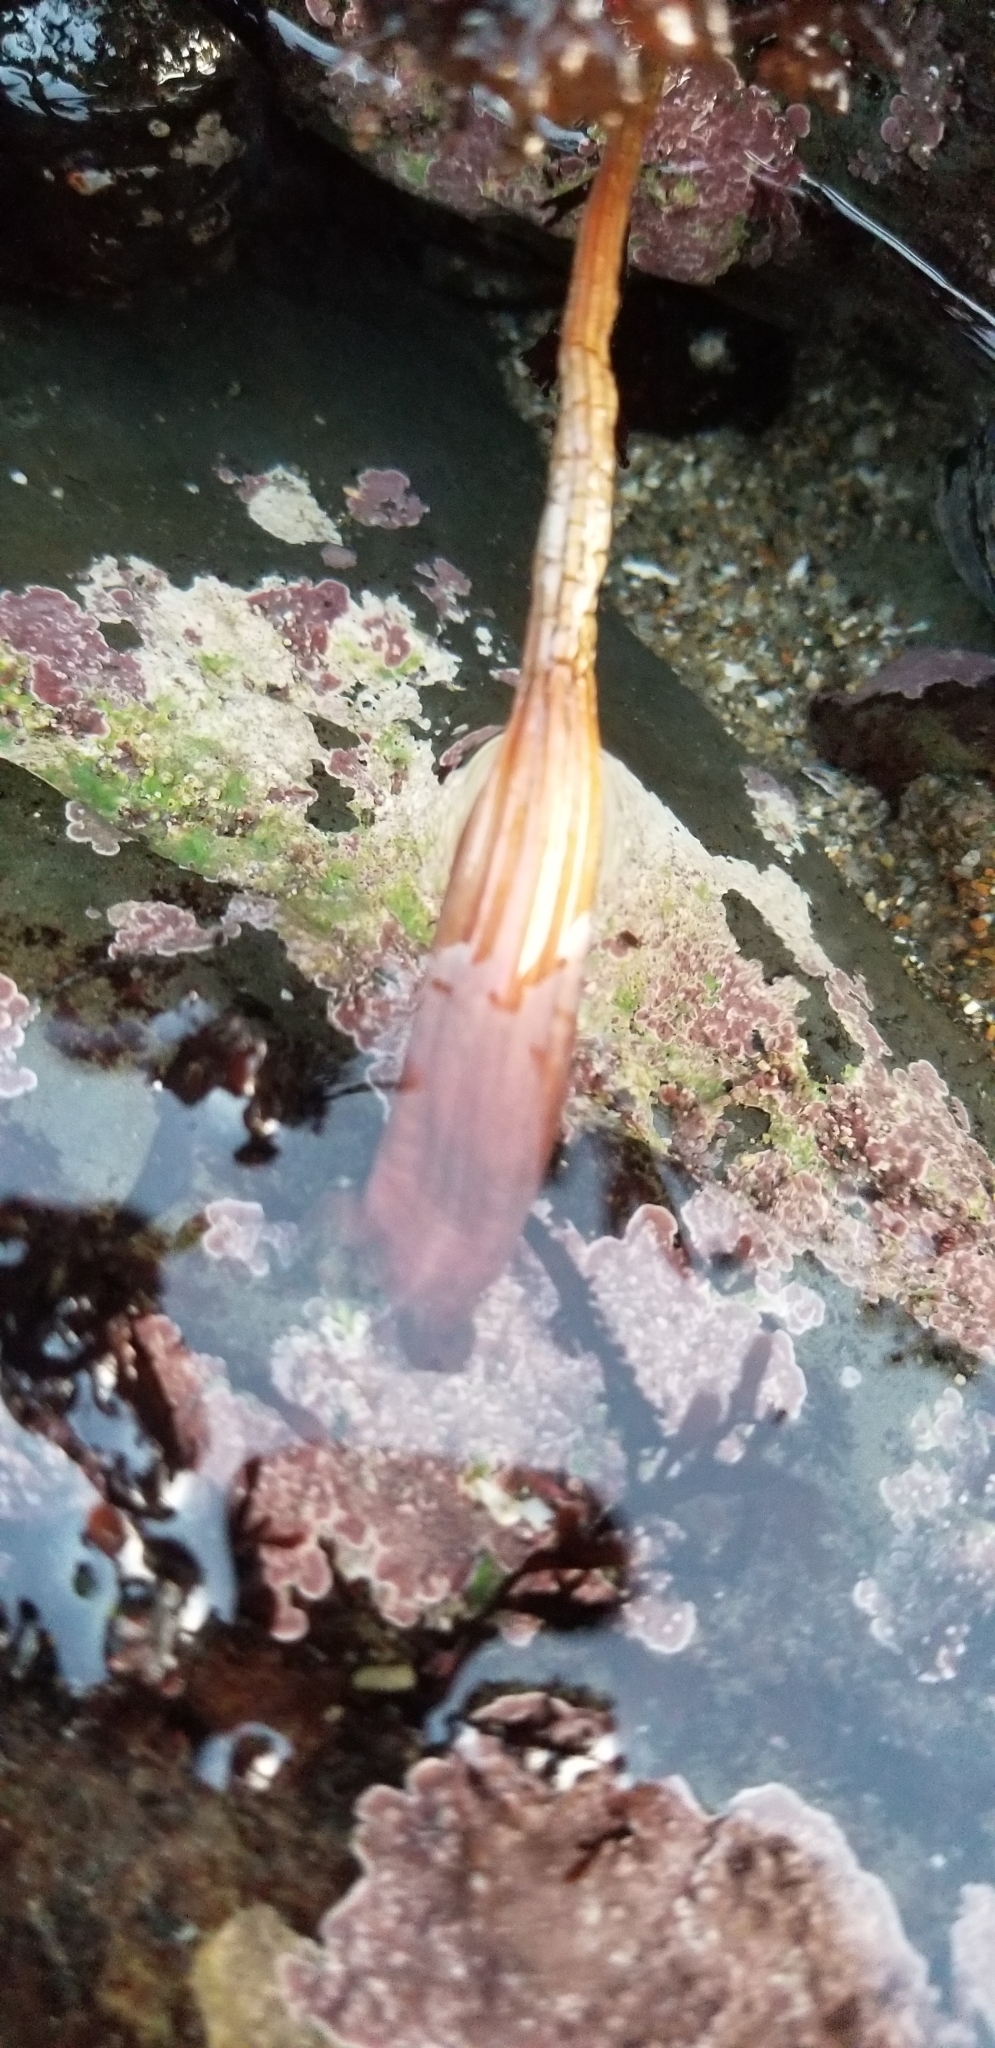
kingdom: Animalia
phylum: Chordata
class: Ascidiacea
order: Stolidobranchia
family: Styelidae
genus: Styela
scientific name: Styela montereyensis
